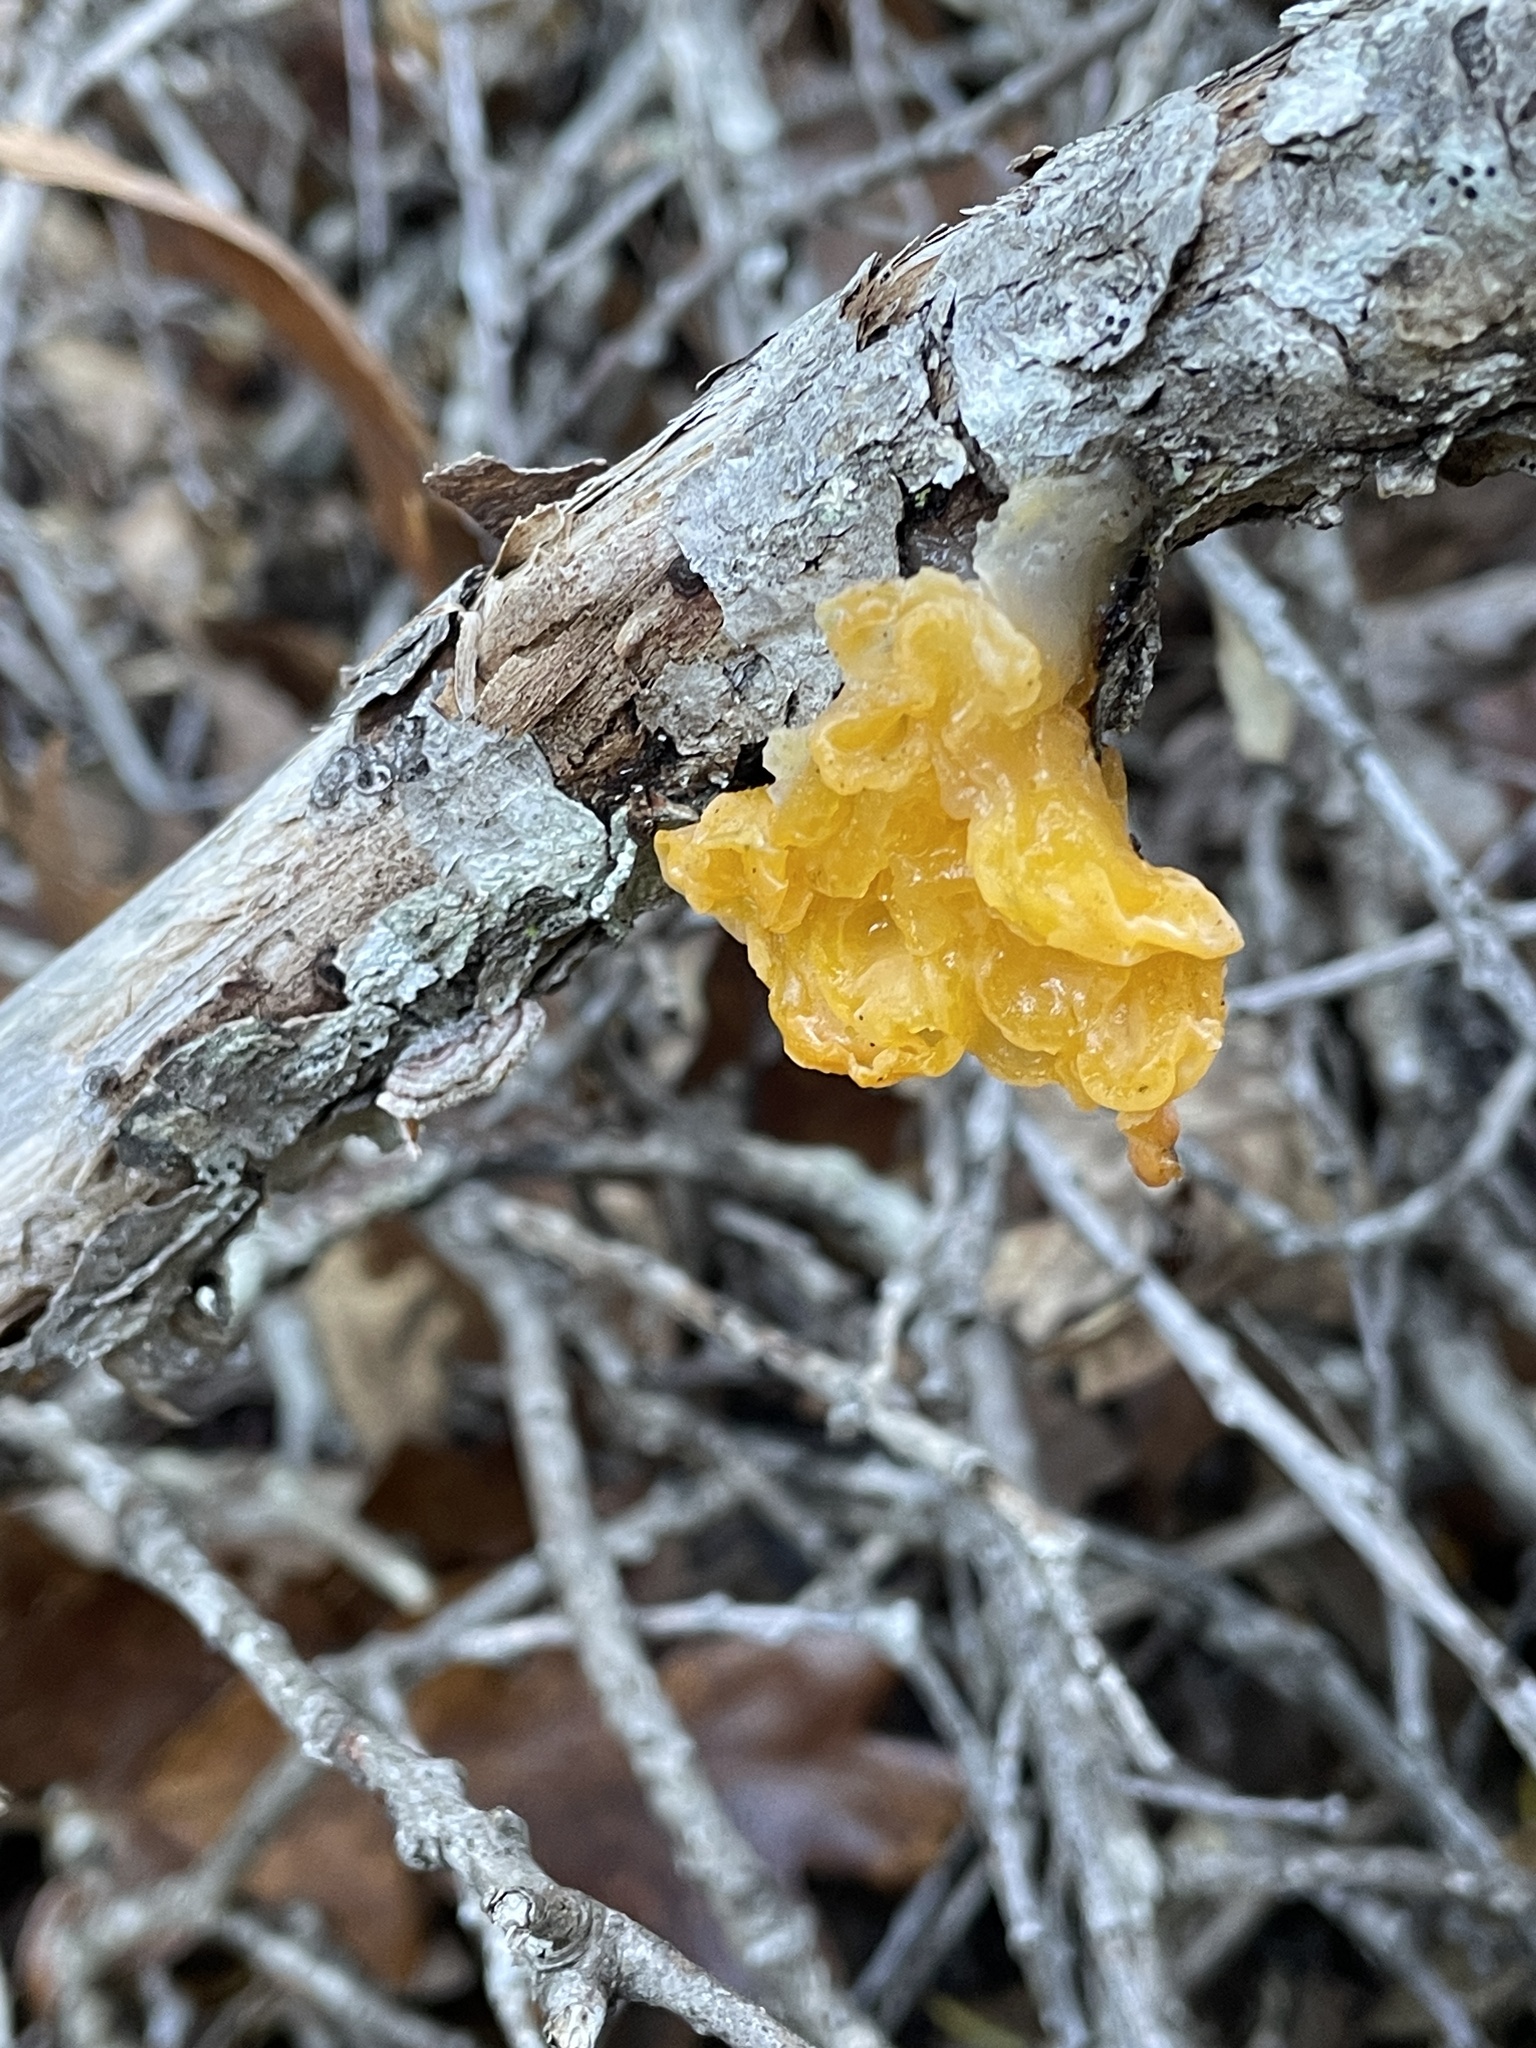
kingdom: Fungi
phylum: Basidiomycota
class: Tremellomycetes
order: Tremellales
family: Naemateliaceae
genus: Naematelia
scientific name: Naematelia aurantia
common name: Golden ear
